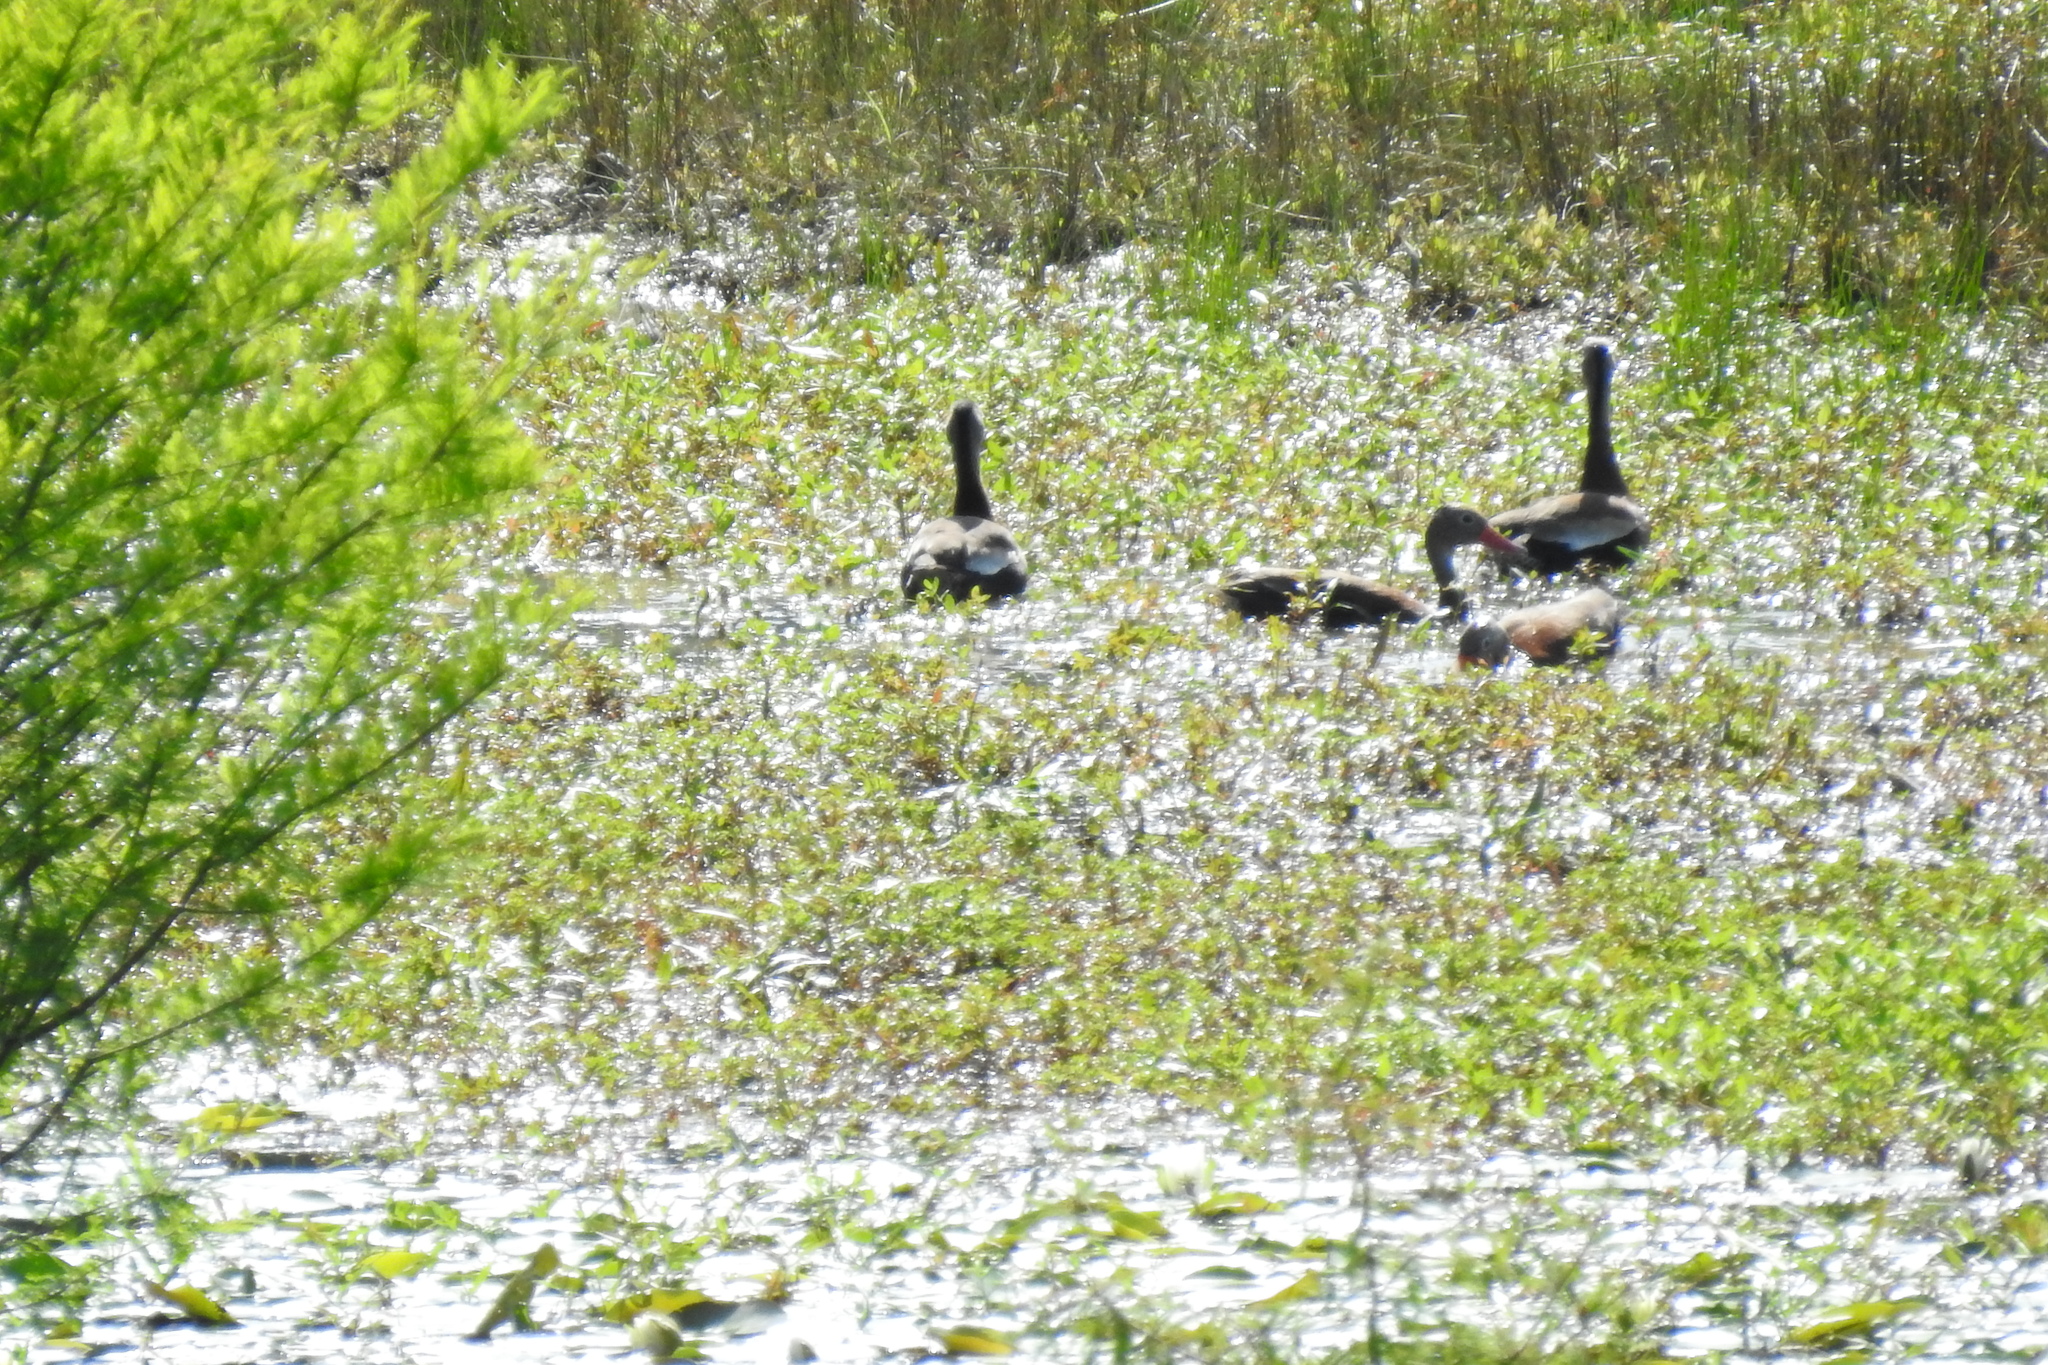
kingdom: Animalia
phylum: Chordata
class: Aves
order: Anseriformes
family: Anatidae
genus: Dendrocygna
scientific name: Dendrocygna autumnalis
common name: Black-bellied whistling duck
